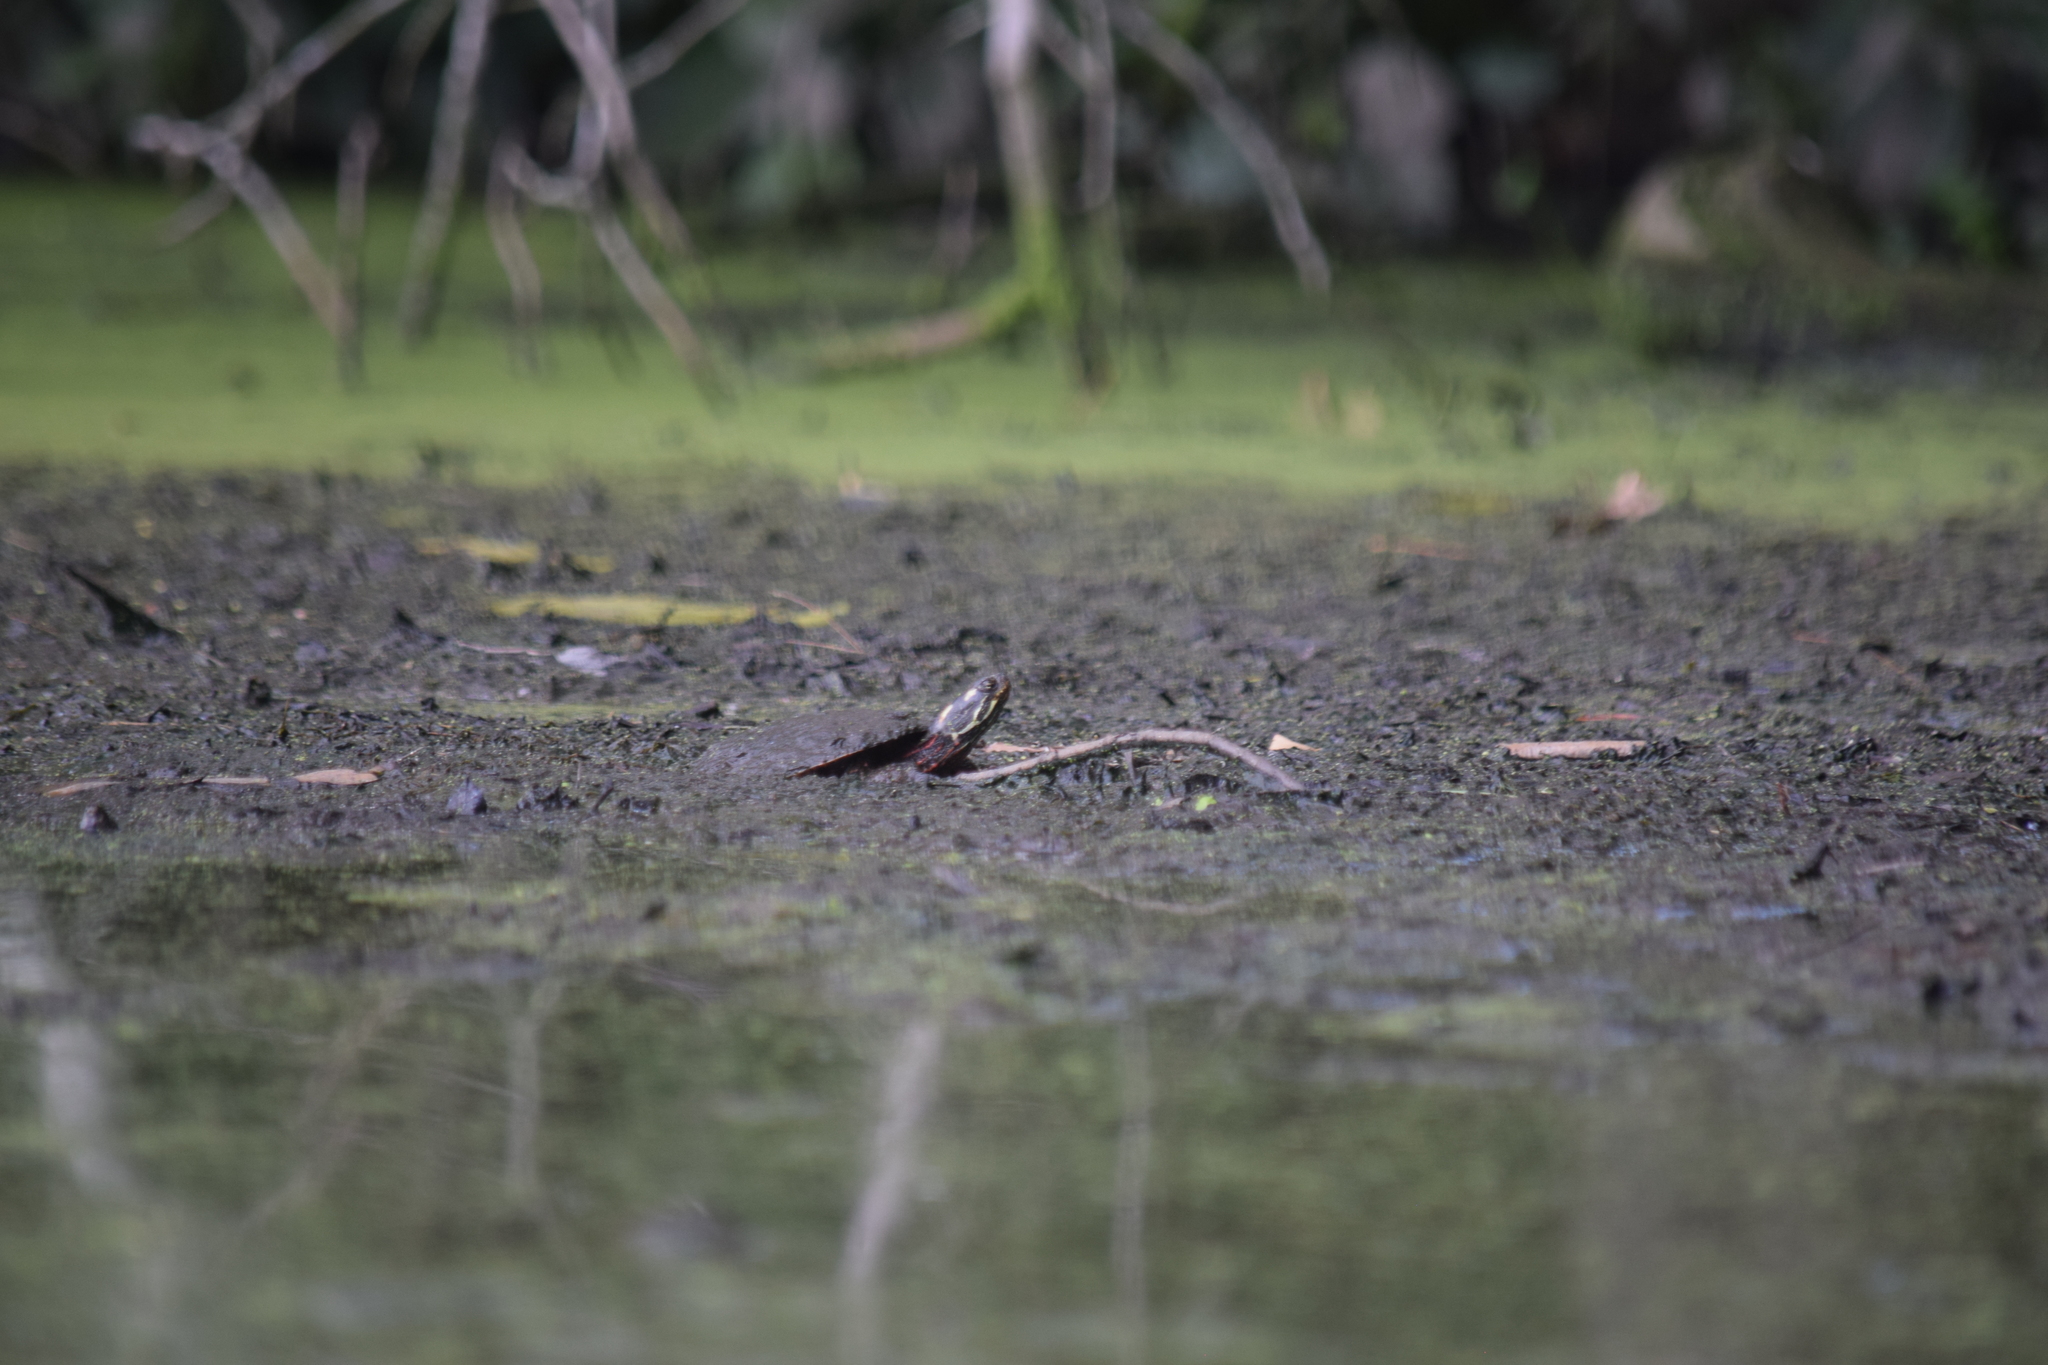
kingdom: Animalia
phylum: Chordata
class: Testudines
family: Emydidae
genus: Chrysemys
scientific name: Chrysemys picta
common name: Painted turtle
